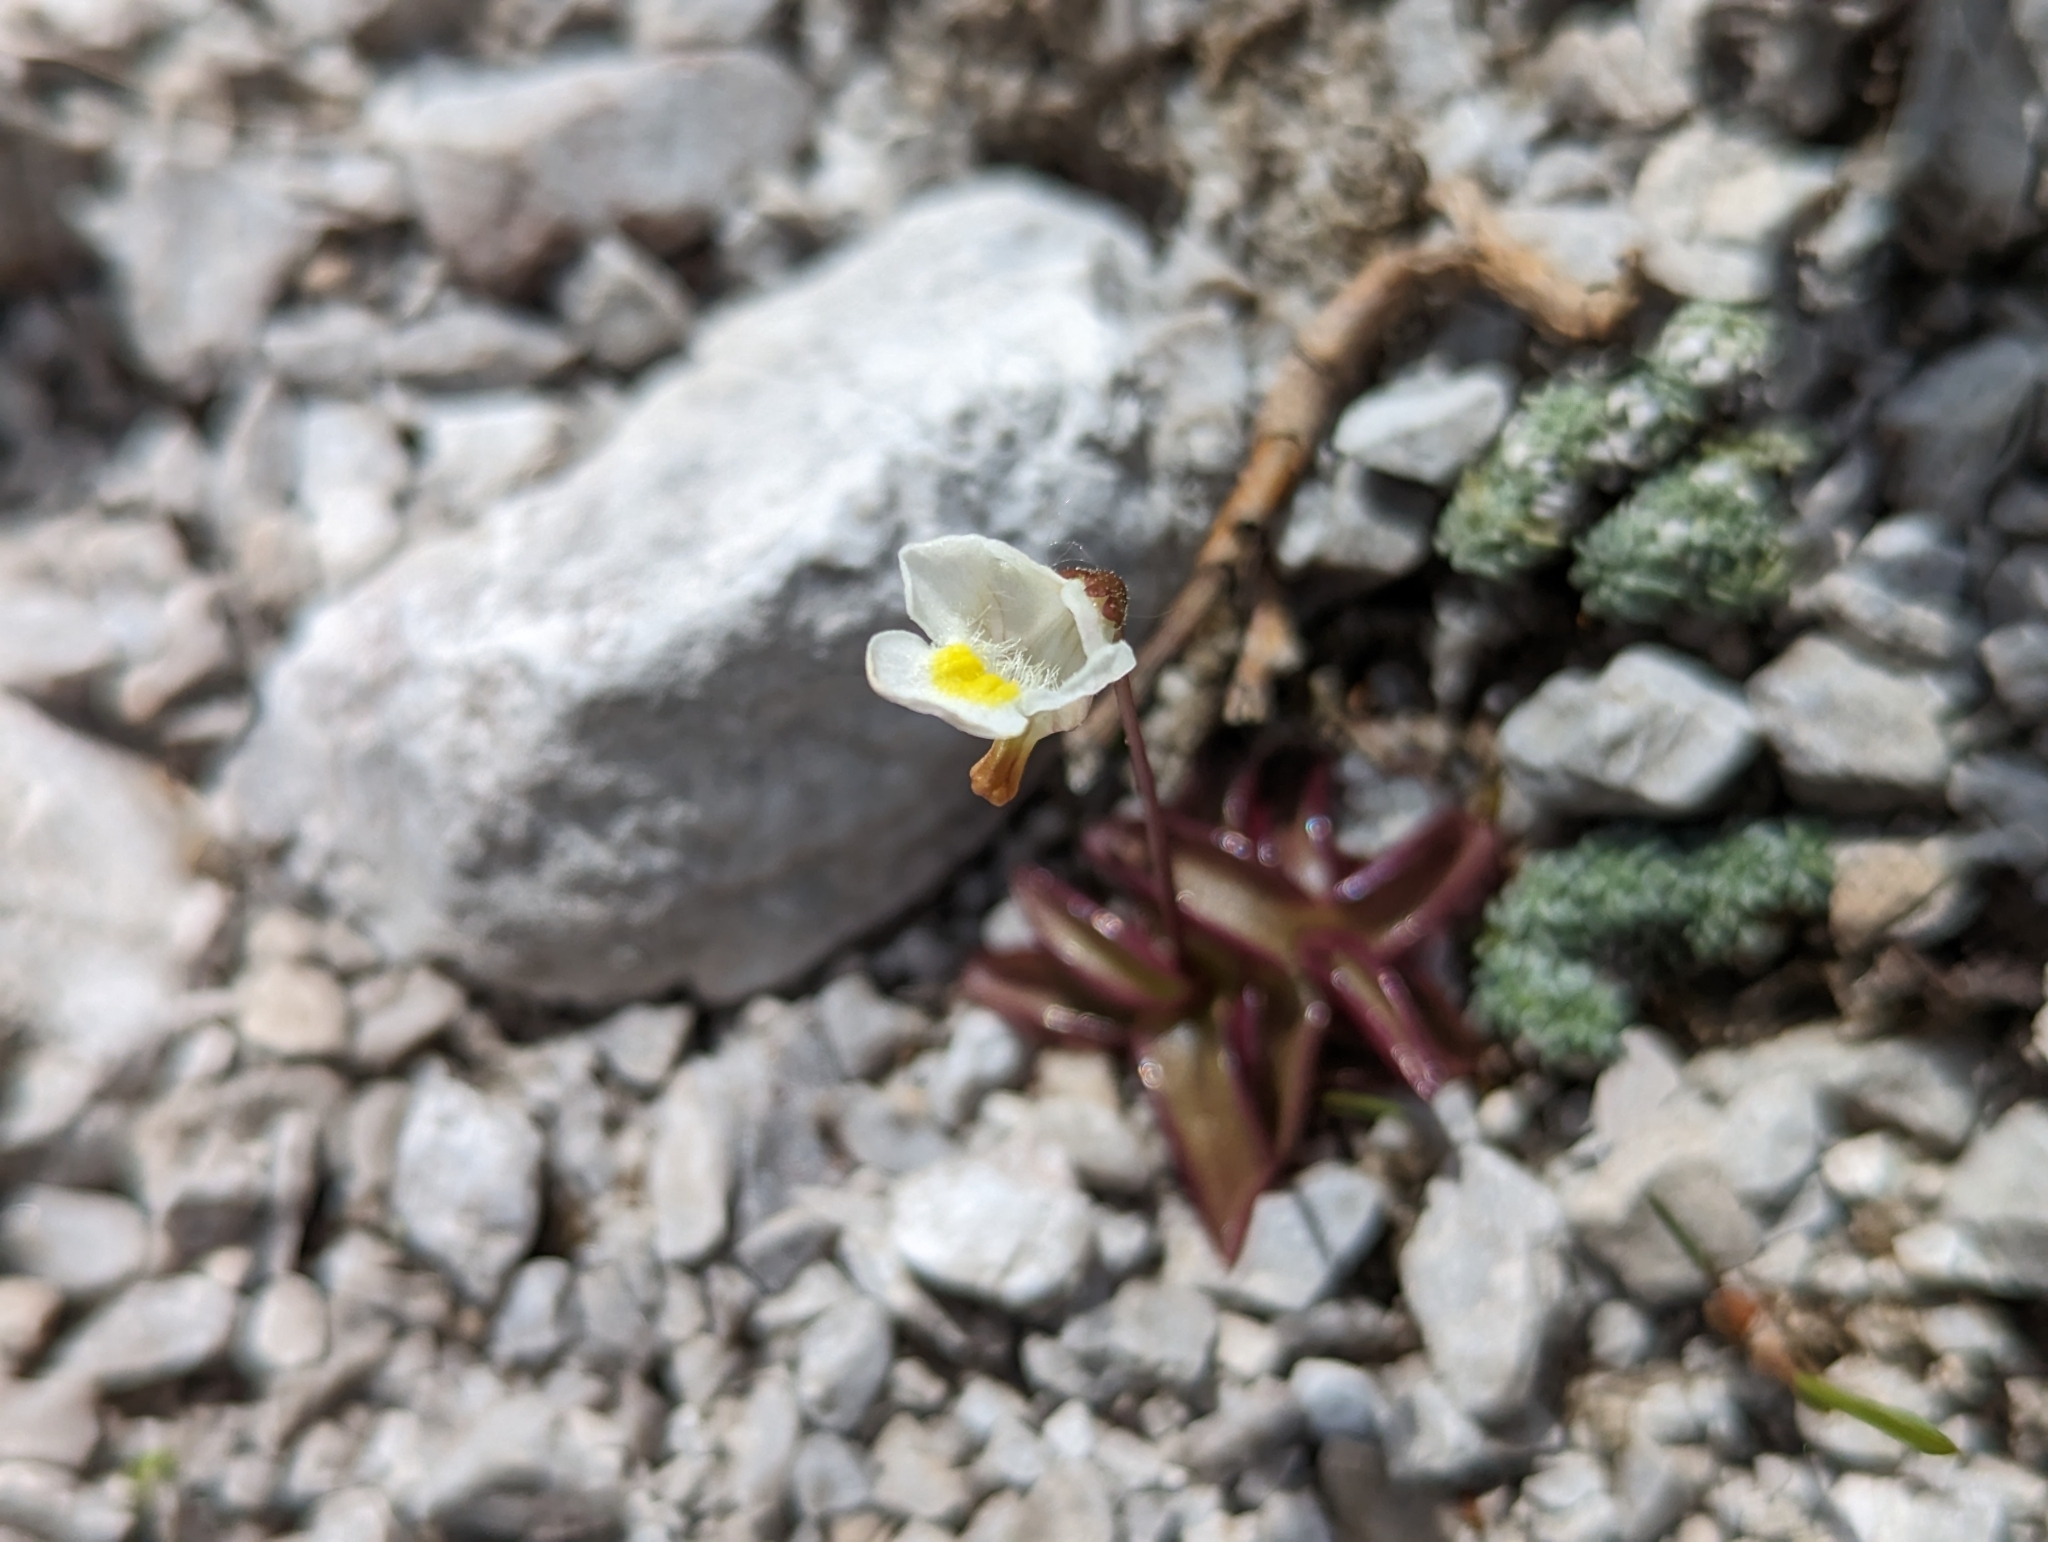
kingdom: Plantae
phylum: Tracheophyta
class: Magnoliopsida
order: Lamiales
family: Lentibulariaceae
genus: Pinguicula
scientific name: Pinguicula alpina
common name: Alpine butterwort
